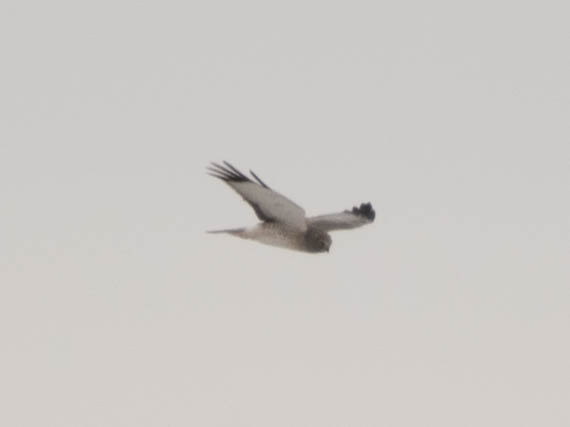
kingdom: Animalia
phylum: Chordata
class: Aves
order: Accipitriformes
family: Accipitridae
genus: Circus
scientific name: Circus cyaneus
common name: Hen harrier
